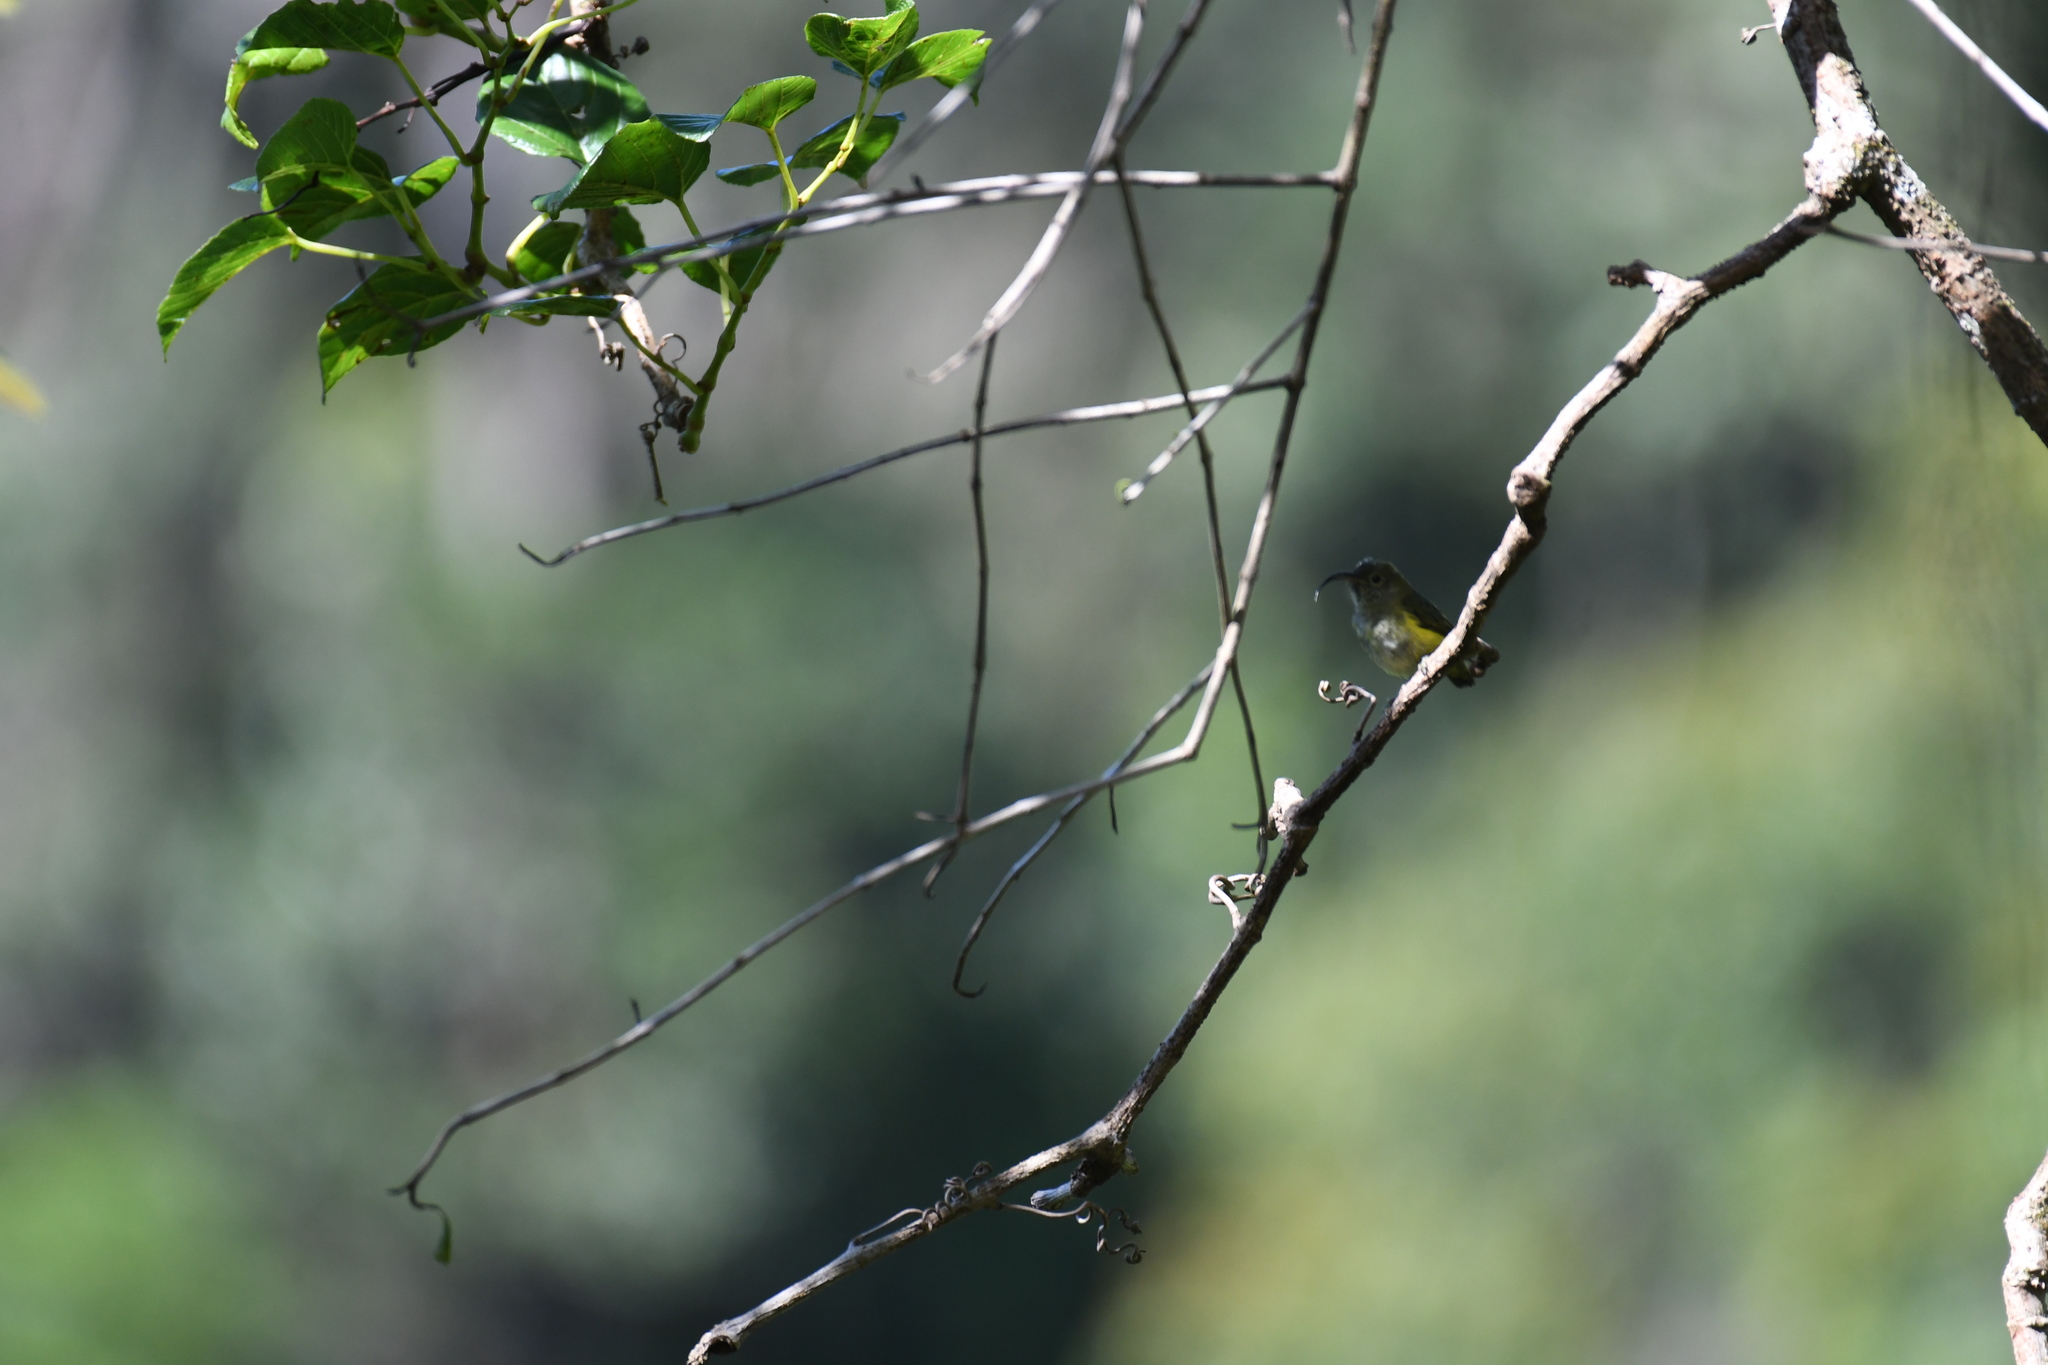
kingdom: Animalia
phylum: Chordata
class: Aves
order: Passeriformes
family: Philepittidae
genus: Neodrepanis
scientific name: Neodrepanis coruscans
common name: Common sunbird-asity
